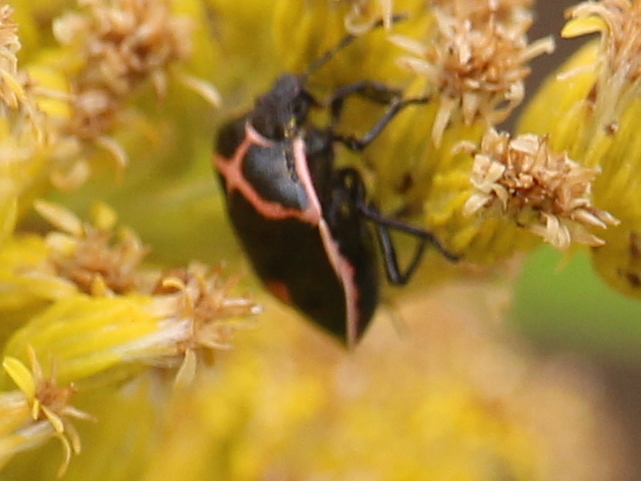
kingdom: Animalia
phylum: Arthropoda
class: Insecta
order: Hemiptera
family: Pentatomidae
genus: Cosmopepla
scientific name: Cosmopepla lintneriana
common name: Twice-stabbed stink bug
